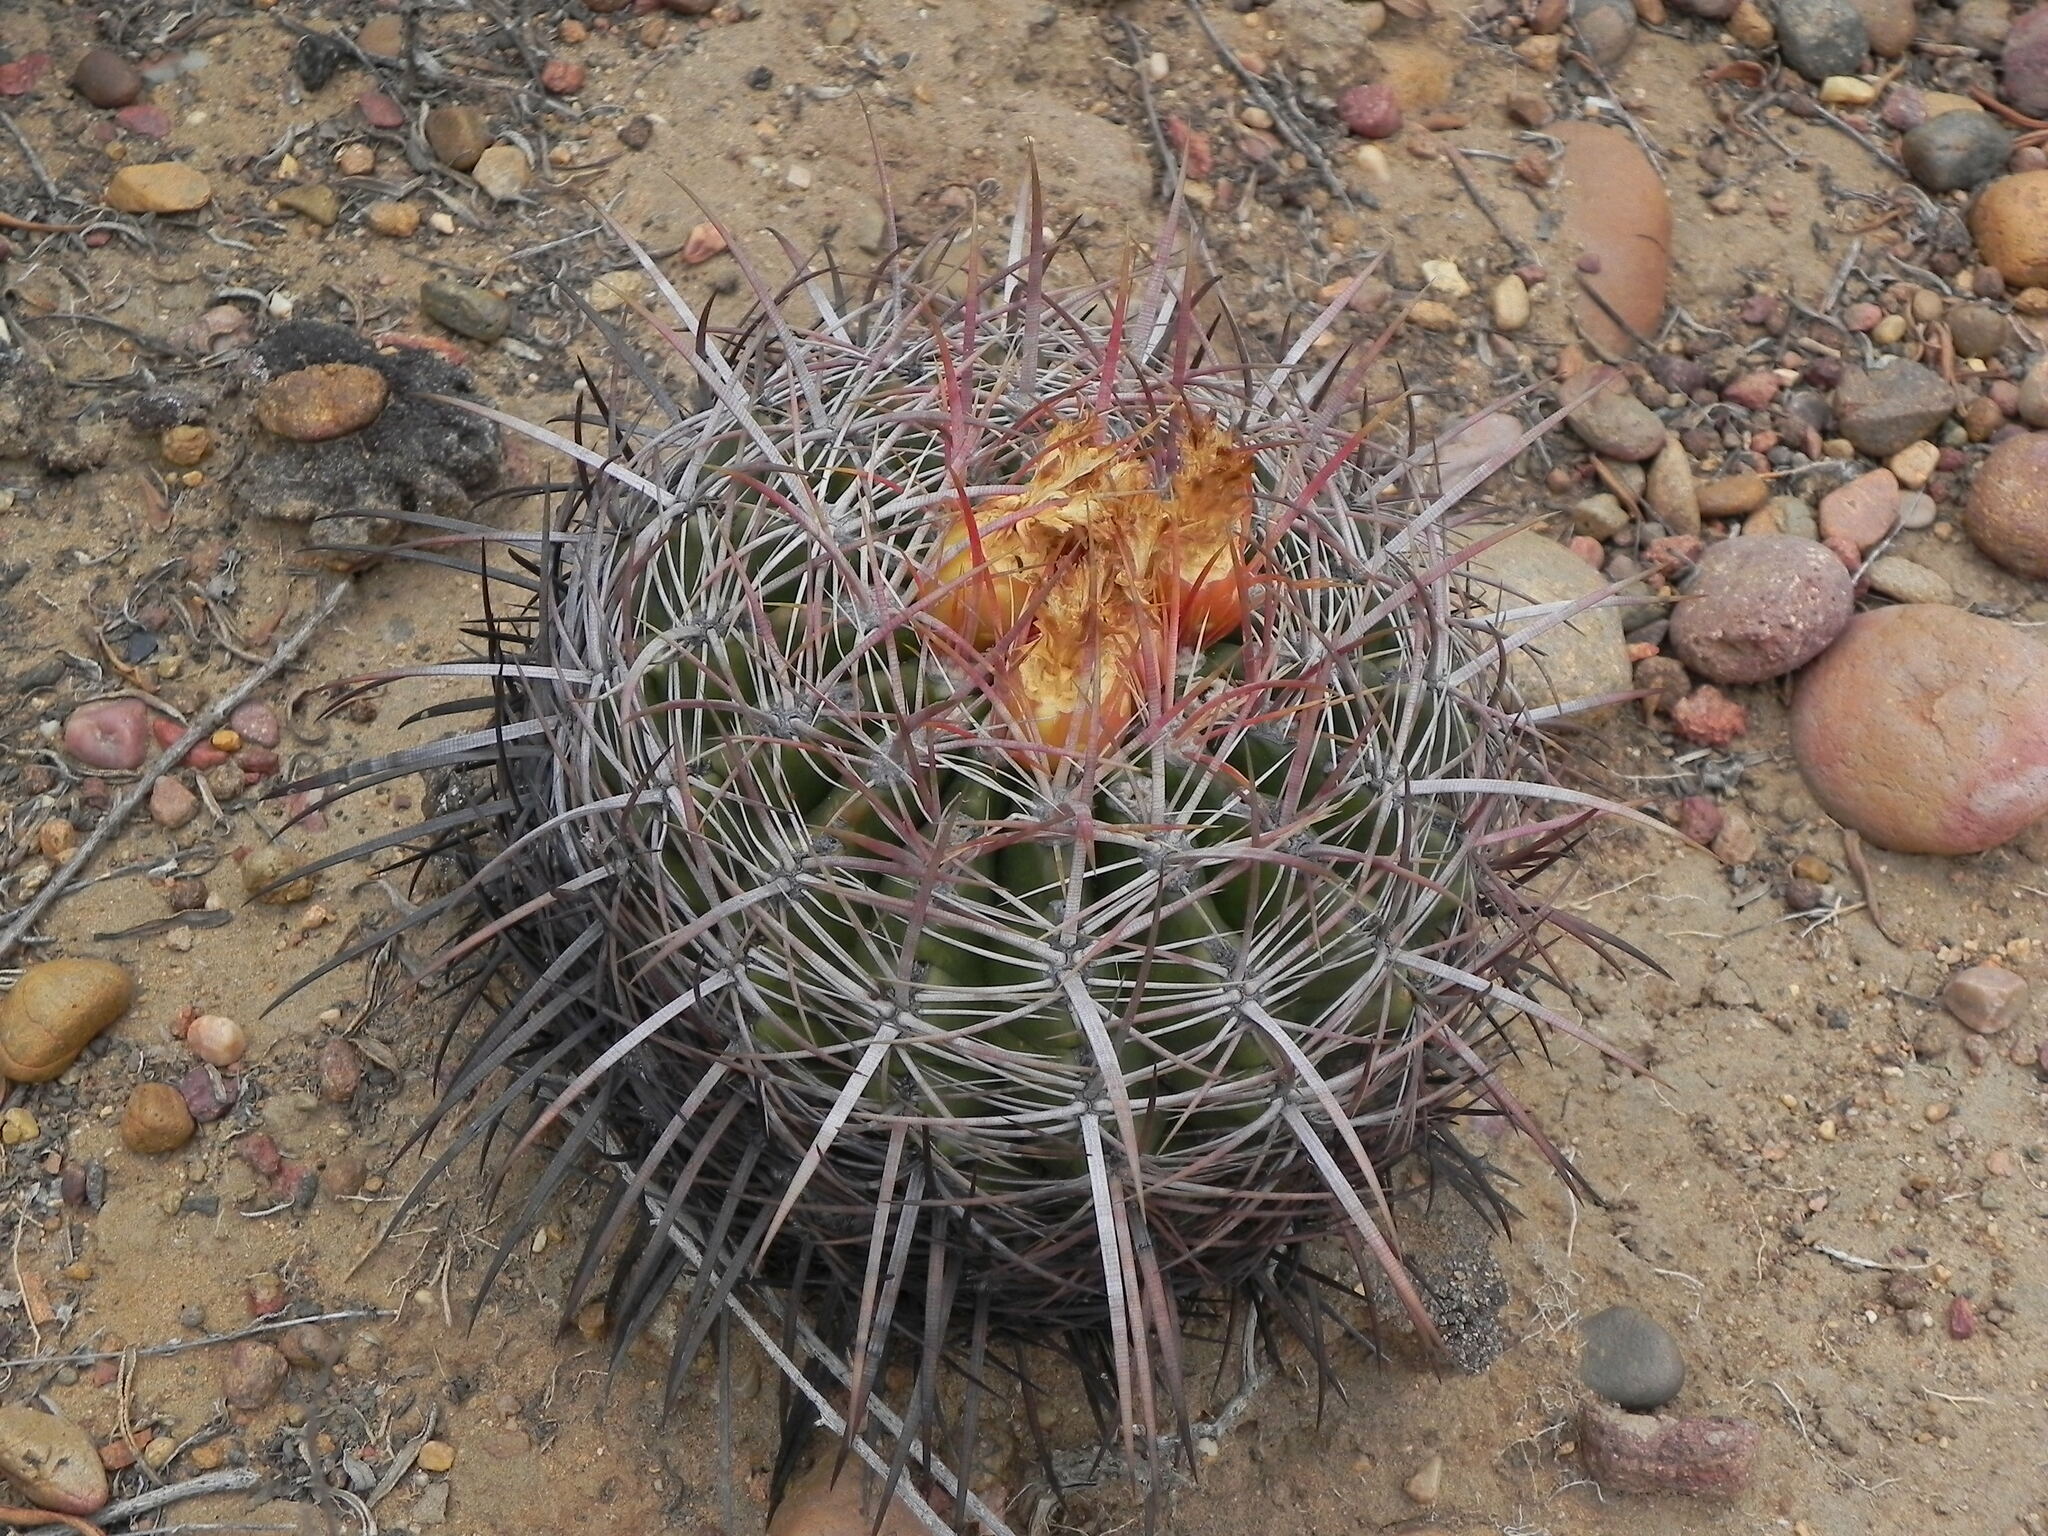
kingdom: Plantae
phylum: Tracheophyta
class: Magnoliopsida
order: Caryophyllales
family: Cactaceae
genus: Ferocactus
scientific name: Ferocactus viridescens
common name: San diego barrel cactus
